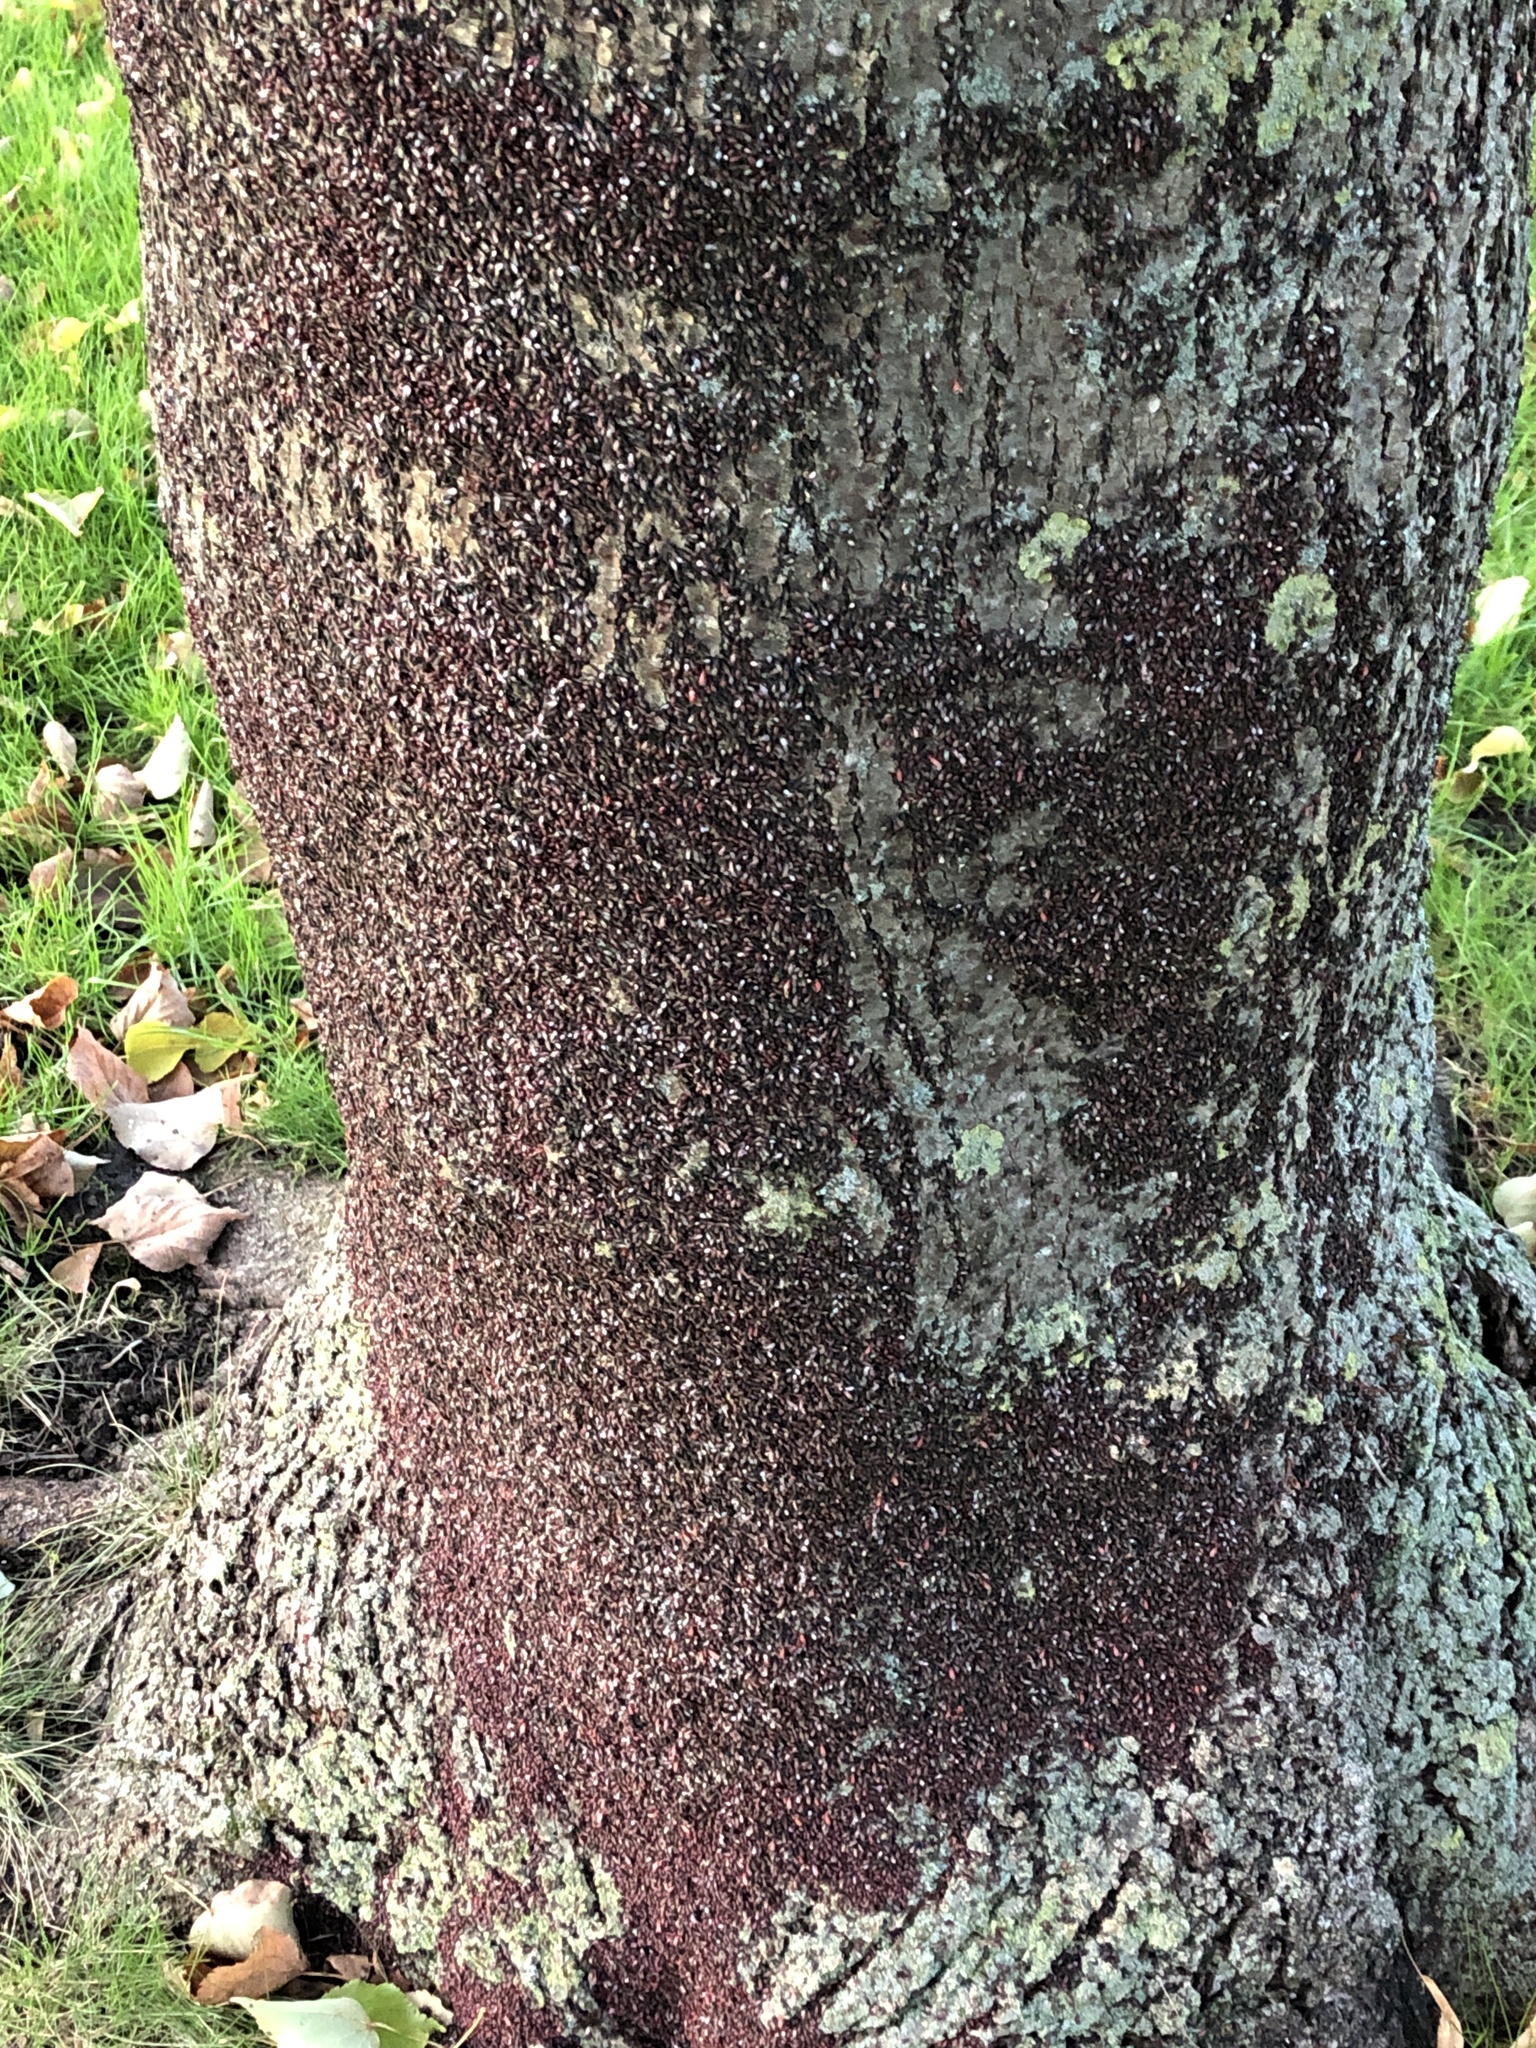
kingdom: Animalia
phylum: Arthropoda
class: Insecta
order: Hemiptera
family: Oxycarenidae
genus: Oxycarenus
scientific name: Oxycarenus lavaterae
